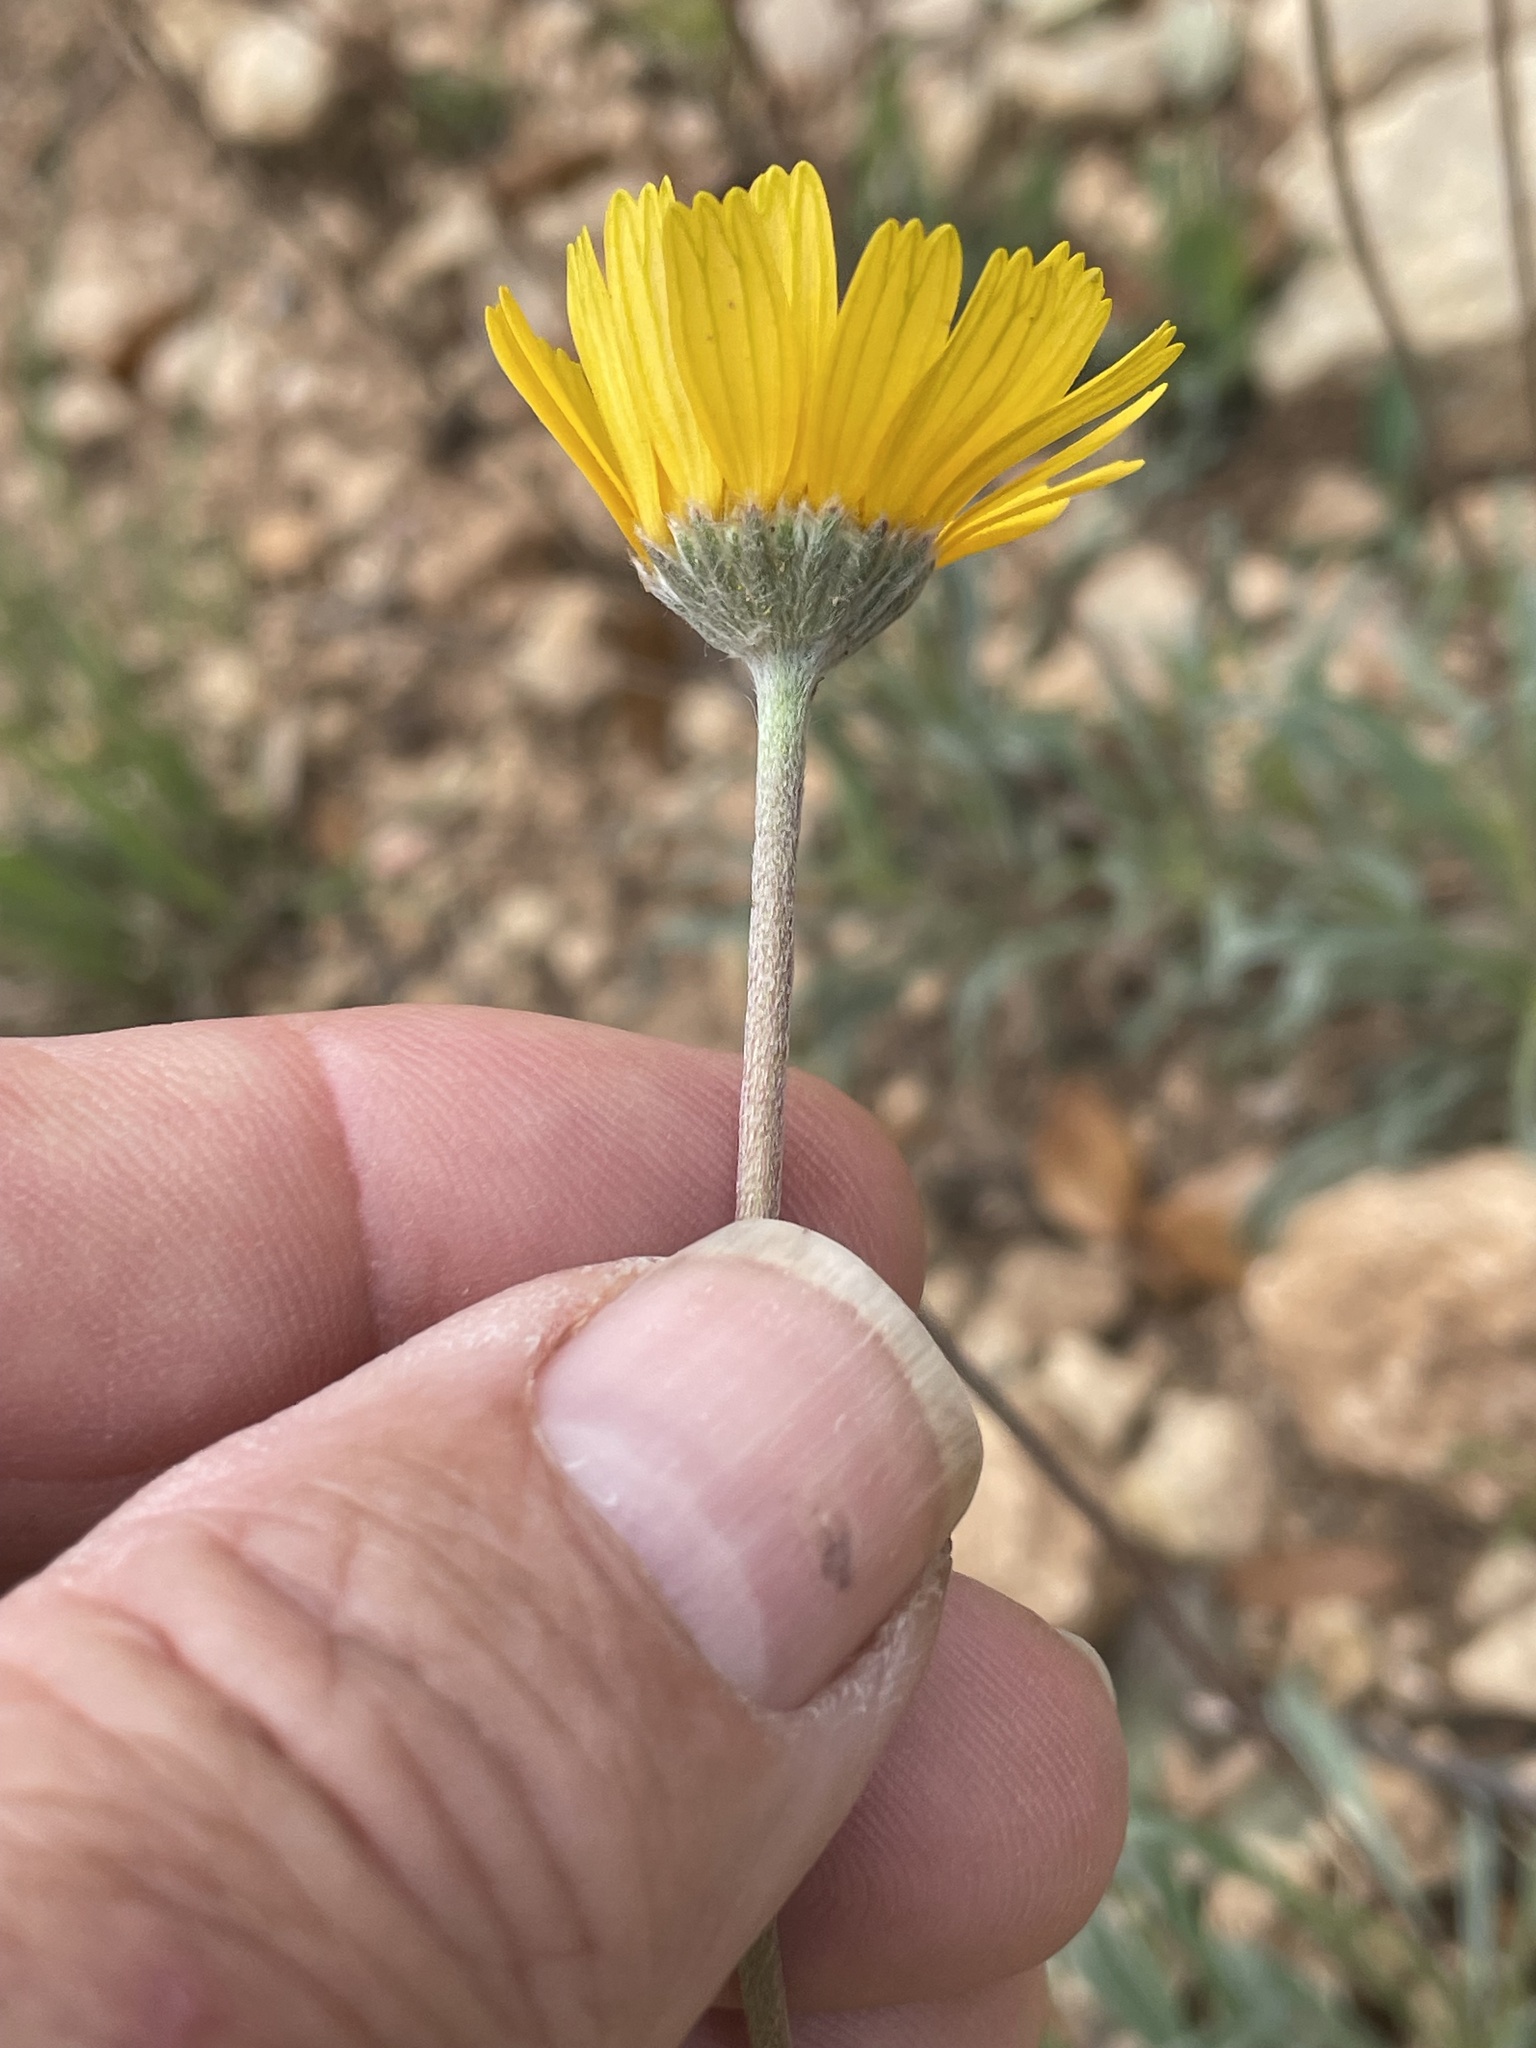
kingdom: Plantae
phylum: Tracheophyta
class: Magnoliopsida
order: Asterales
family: Asteraceae
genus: Tetraneuris
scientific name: Tetraneuris scaposa
